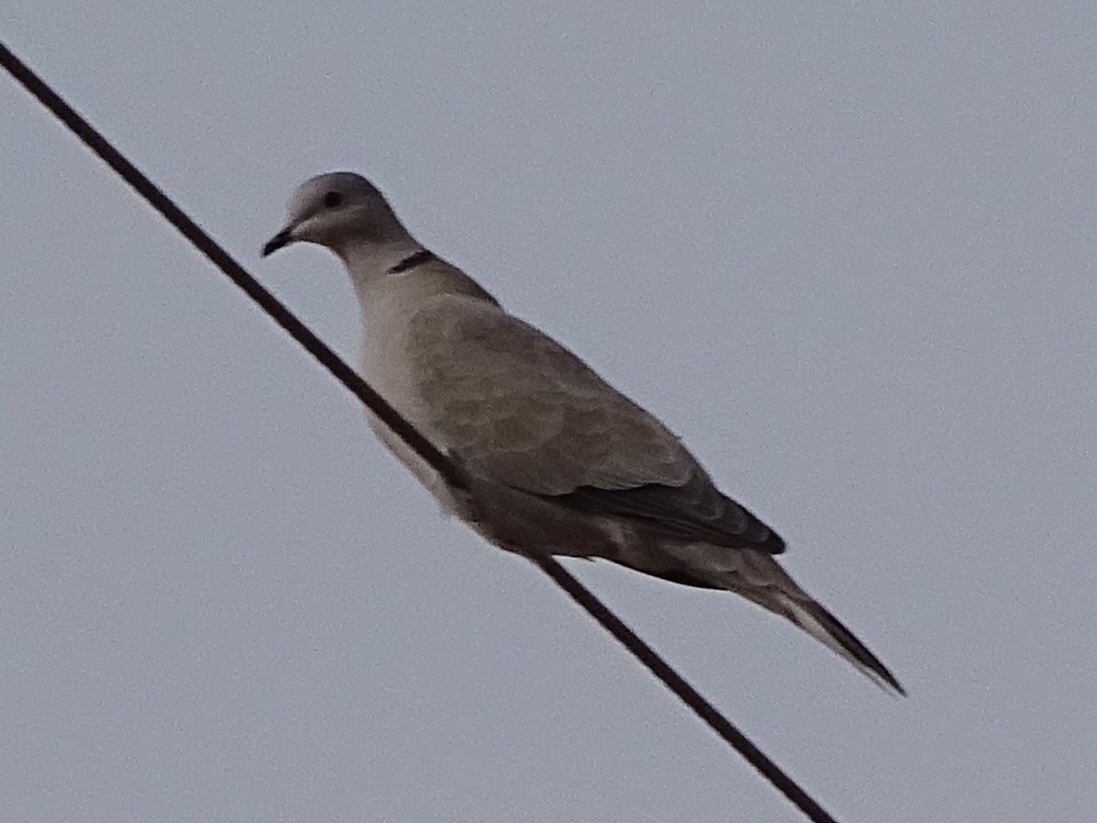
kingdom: Animalia
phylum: Chordata
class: Aves
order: Columbiformes
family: Columbidae
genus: Streptopelia
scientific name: Streptopelia decaocto
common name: Eurasian collared dove
